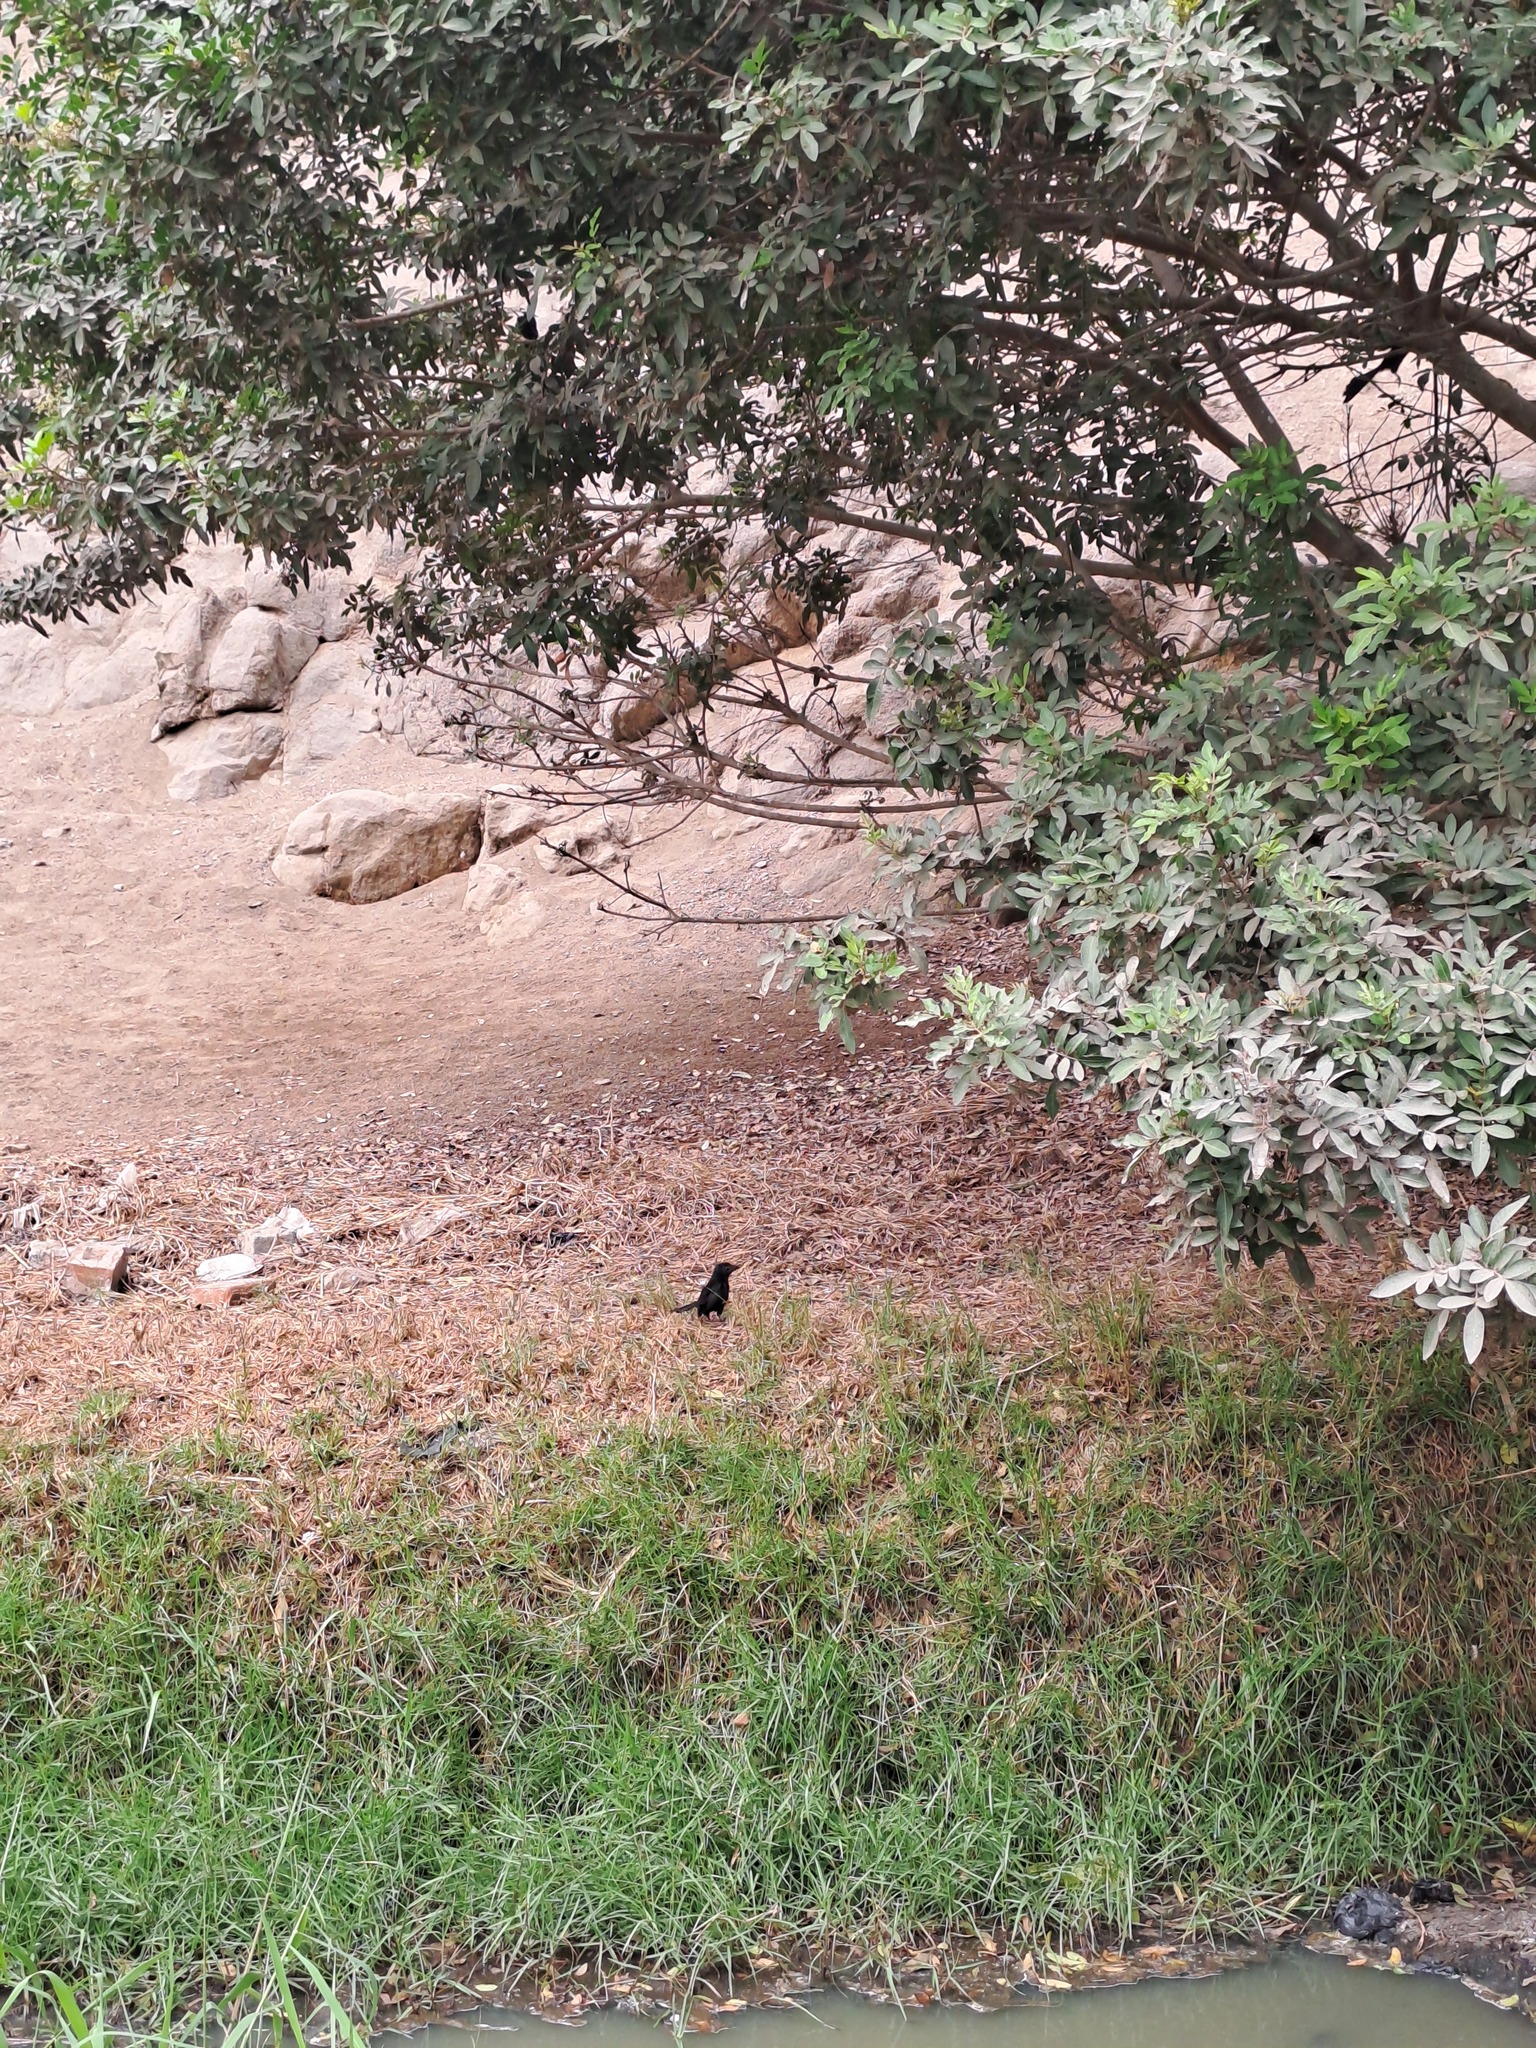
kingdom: Animalia
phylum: Chordata
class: Aves
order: Cuculiformes
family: Cuculidae
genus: Crotophaga
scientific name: Crotophaga sulcirostris
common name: Groove-billed ani
